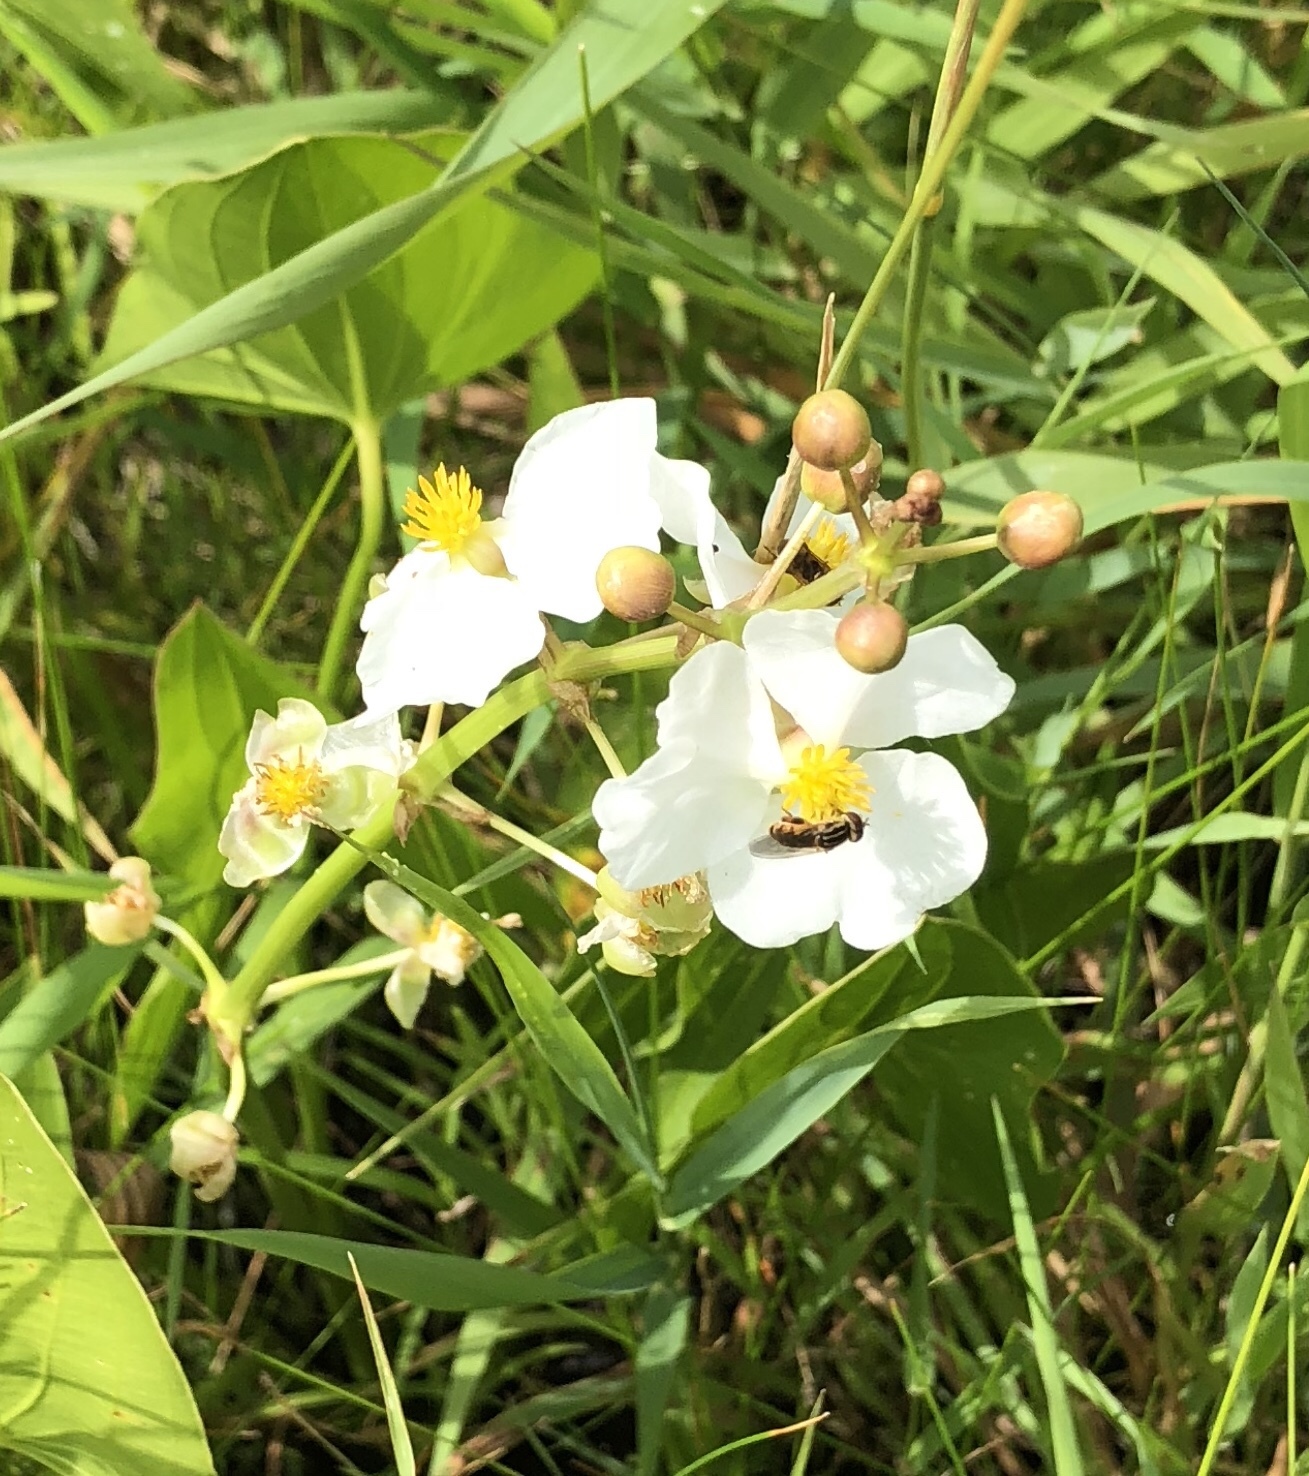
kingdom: Plantae
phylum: Tracheophyta
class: Liliopsida
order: Alismatales
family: Alismataceae
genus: Sagittaria
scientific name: Sagittaria latifolia
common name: Duck-potato
